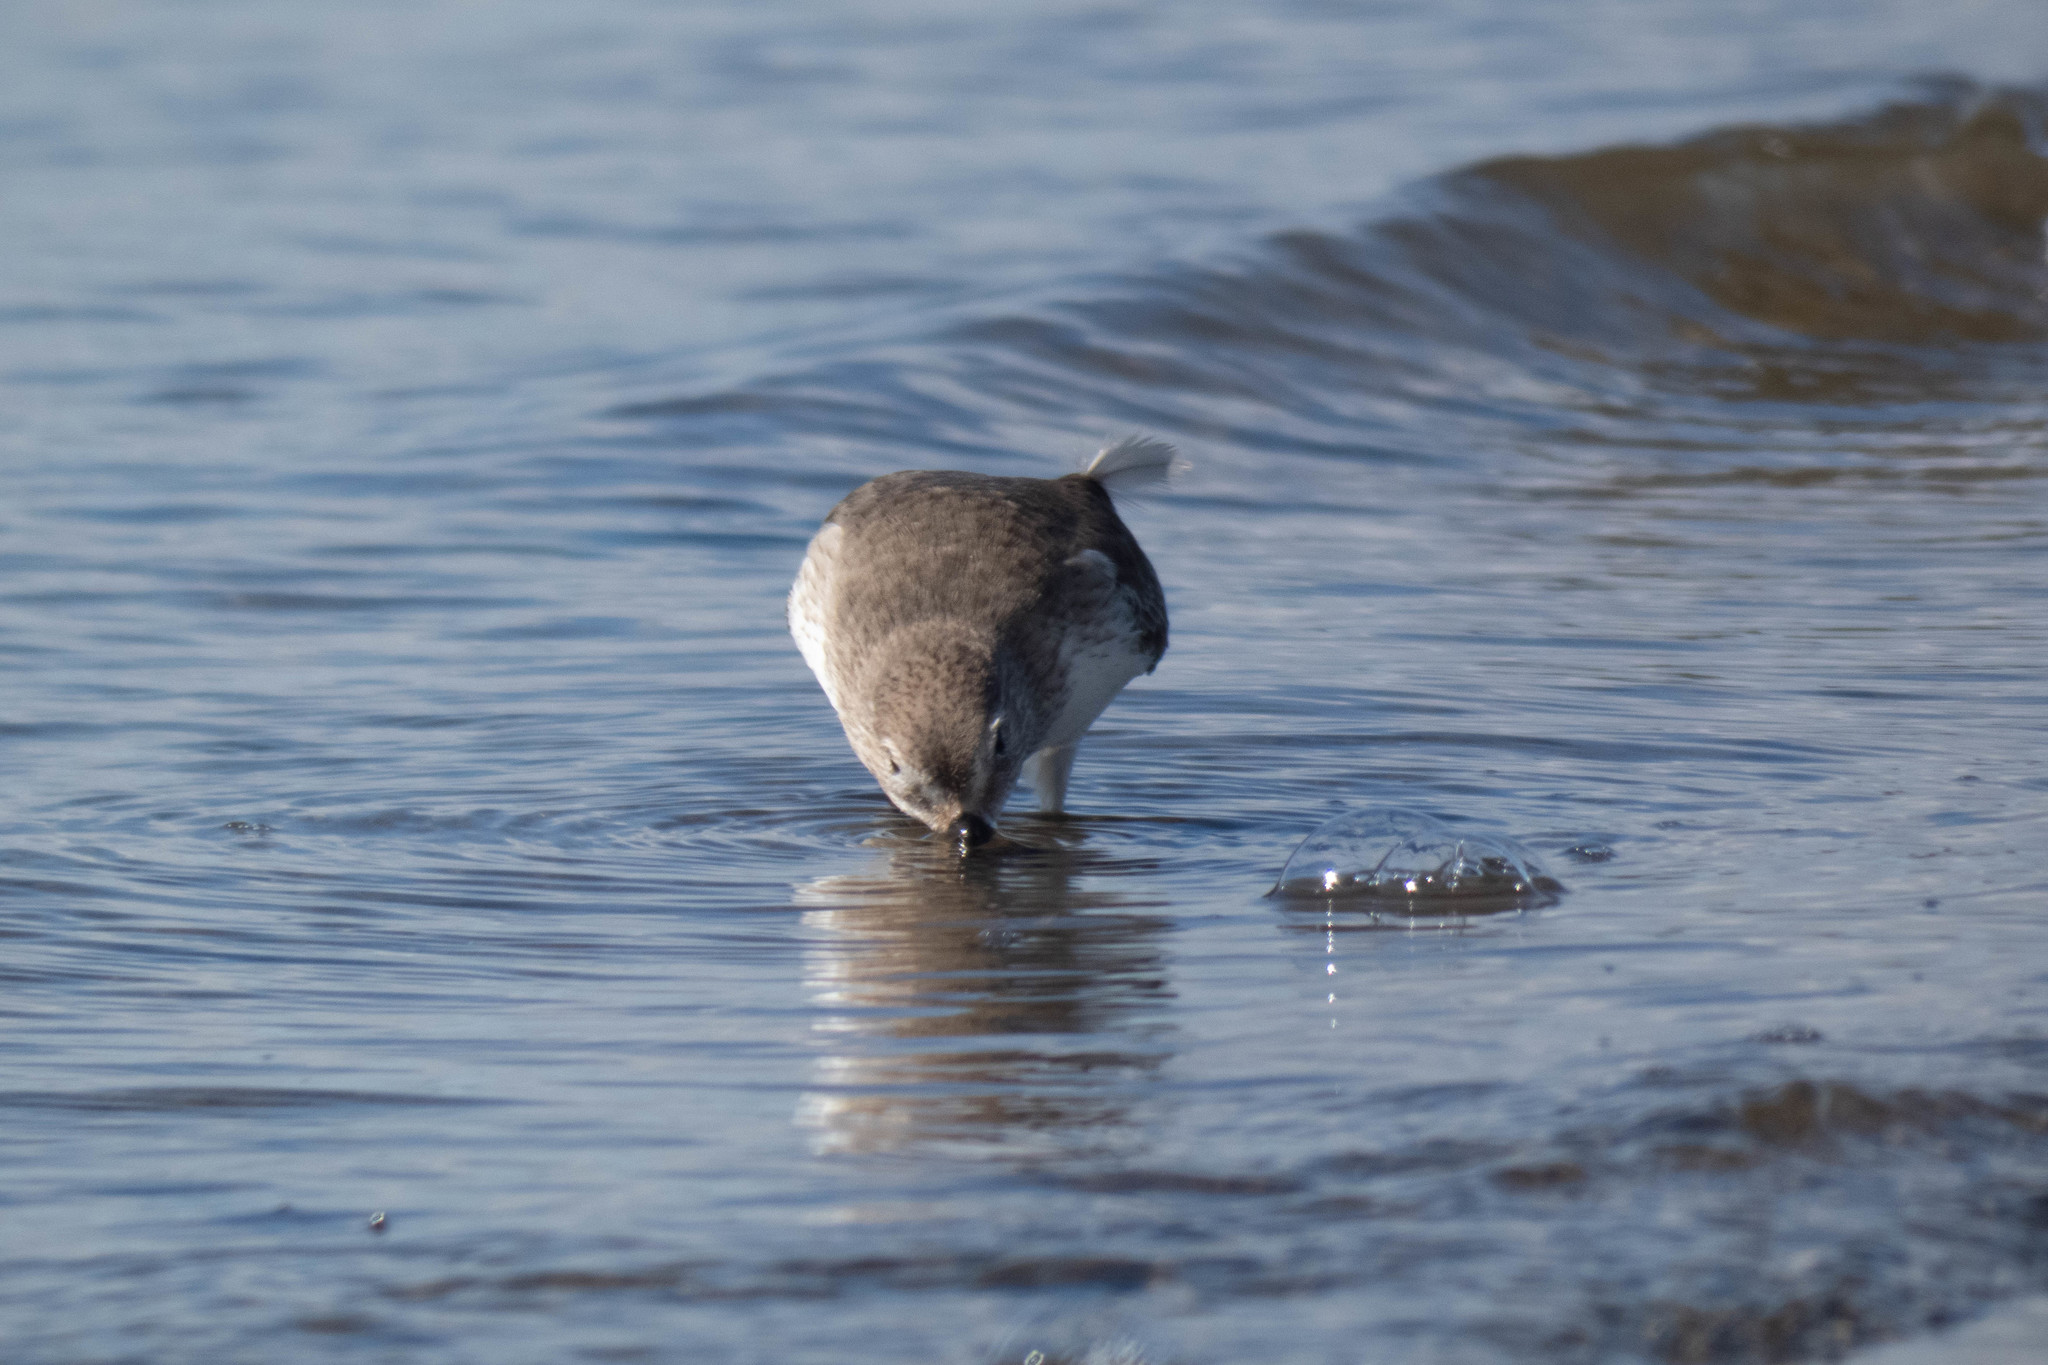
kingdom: Animalia
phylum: Chordata
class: Aves
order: Charadriiformes
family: Scolopacidae
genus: Calidris
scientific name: Calidris alpina
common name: Dunlin
